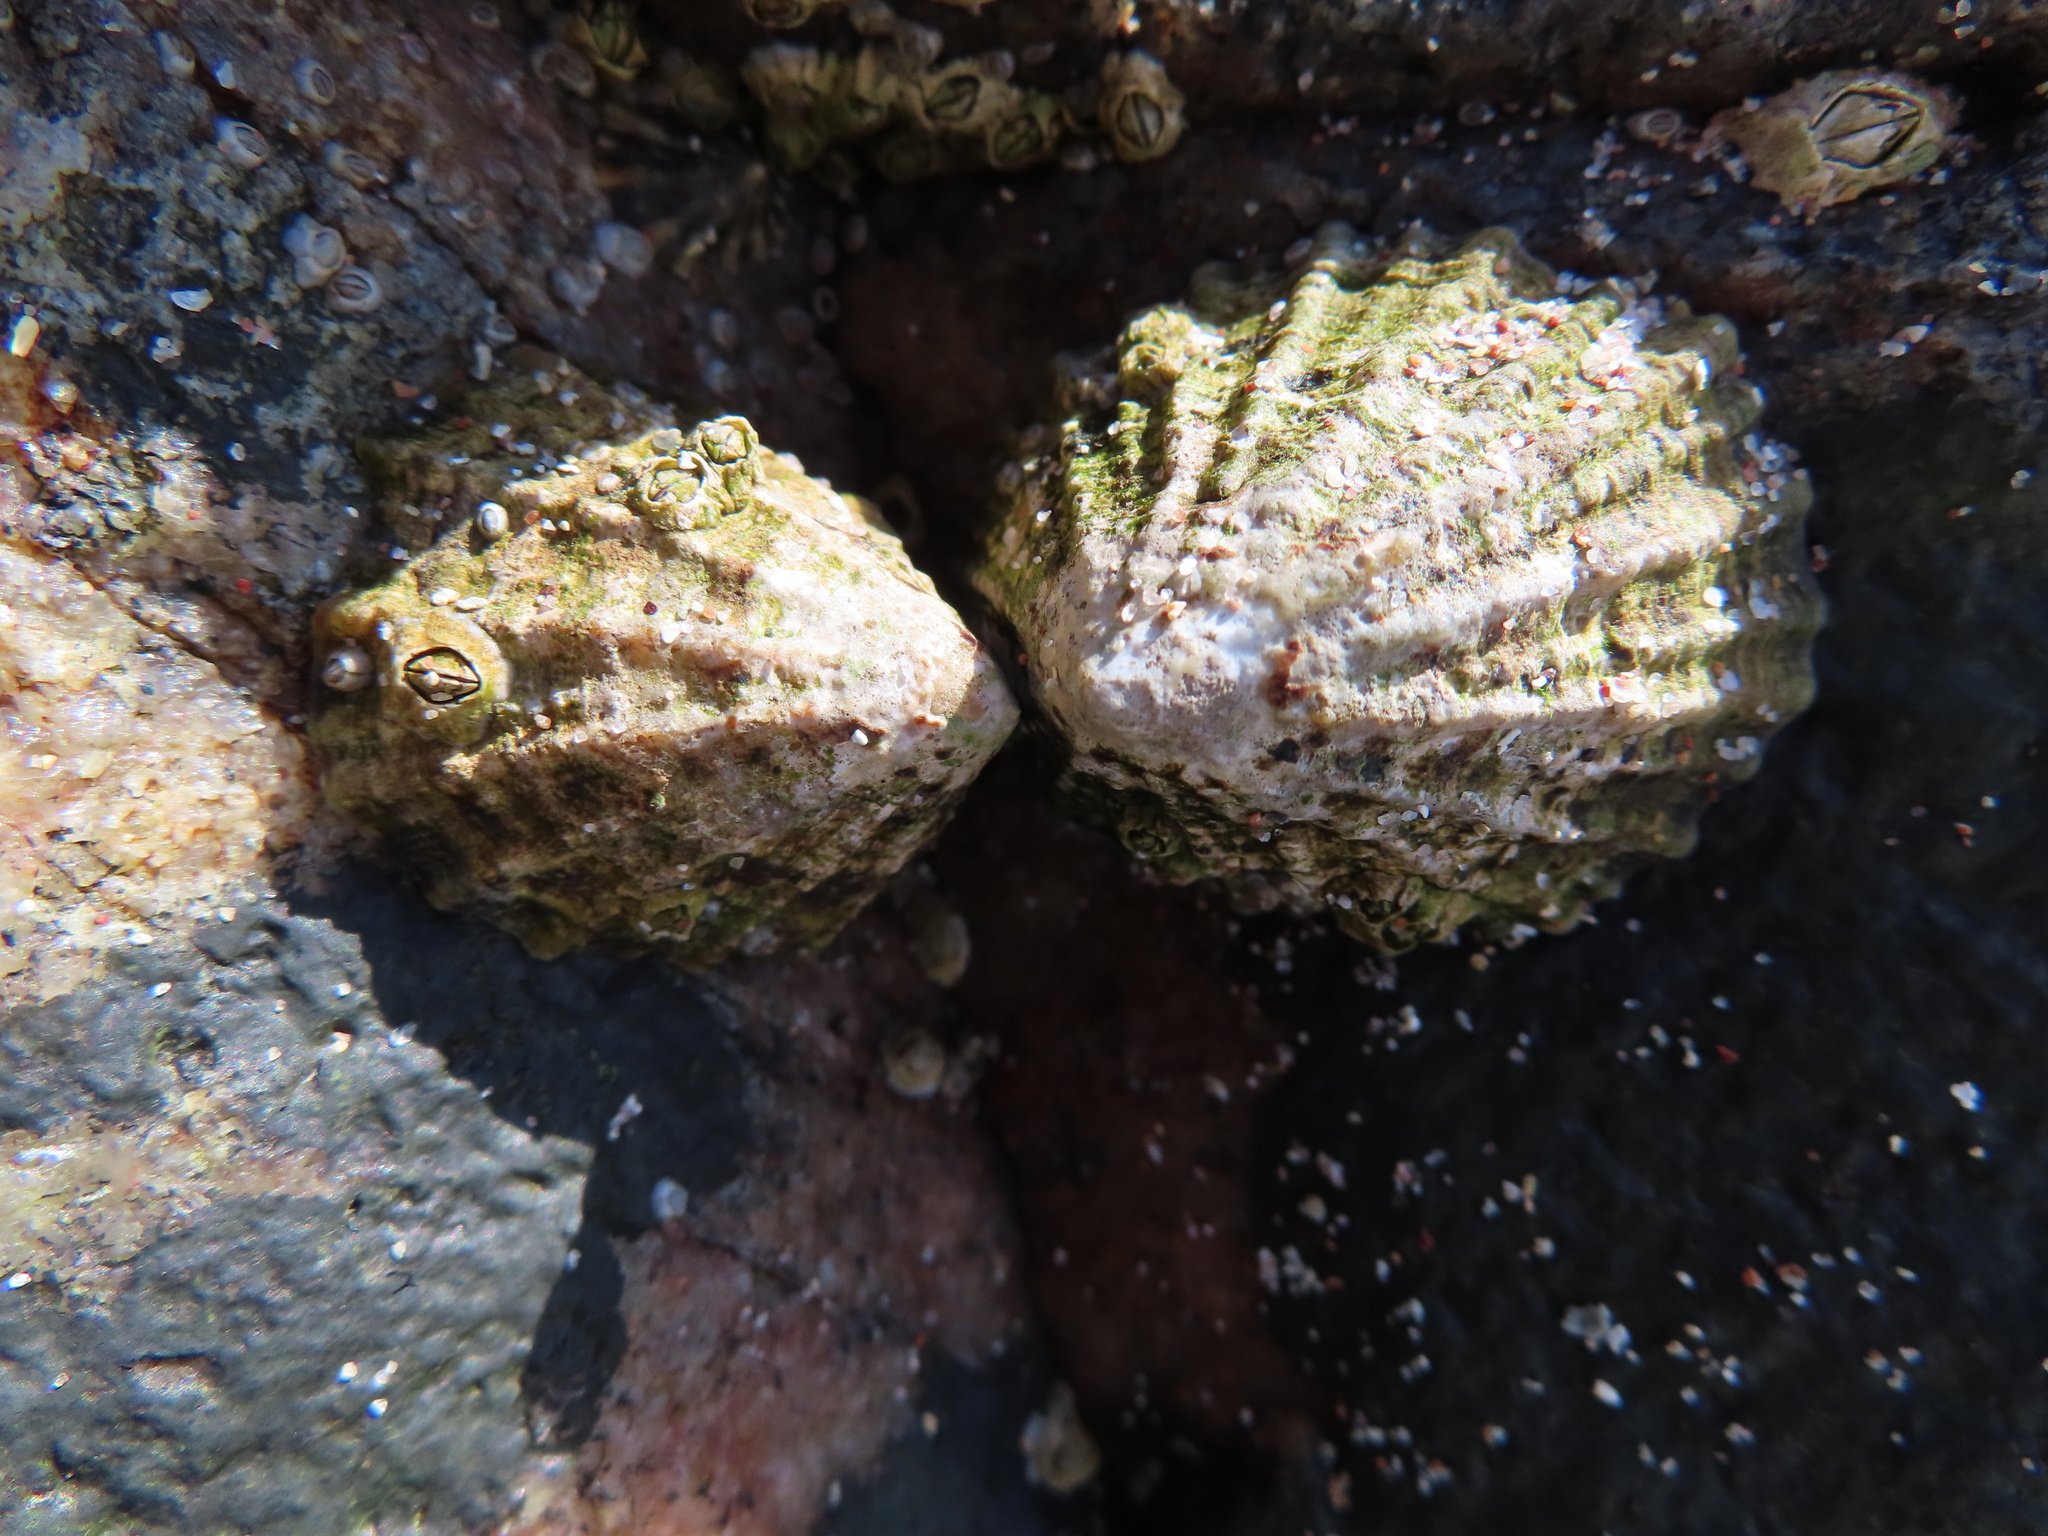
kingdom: Animalia
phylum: Mollusca
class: Gastropoda
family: Patellidae
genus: Patella
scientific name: Patella vulgata
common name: Common limpet
